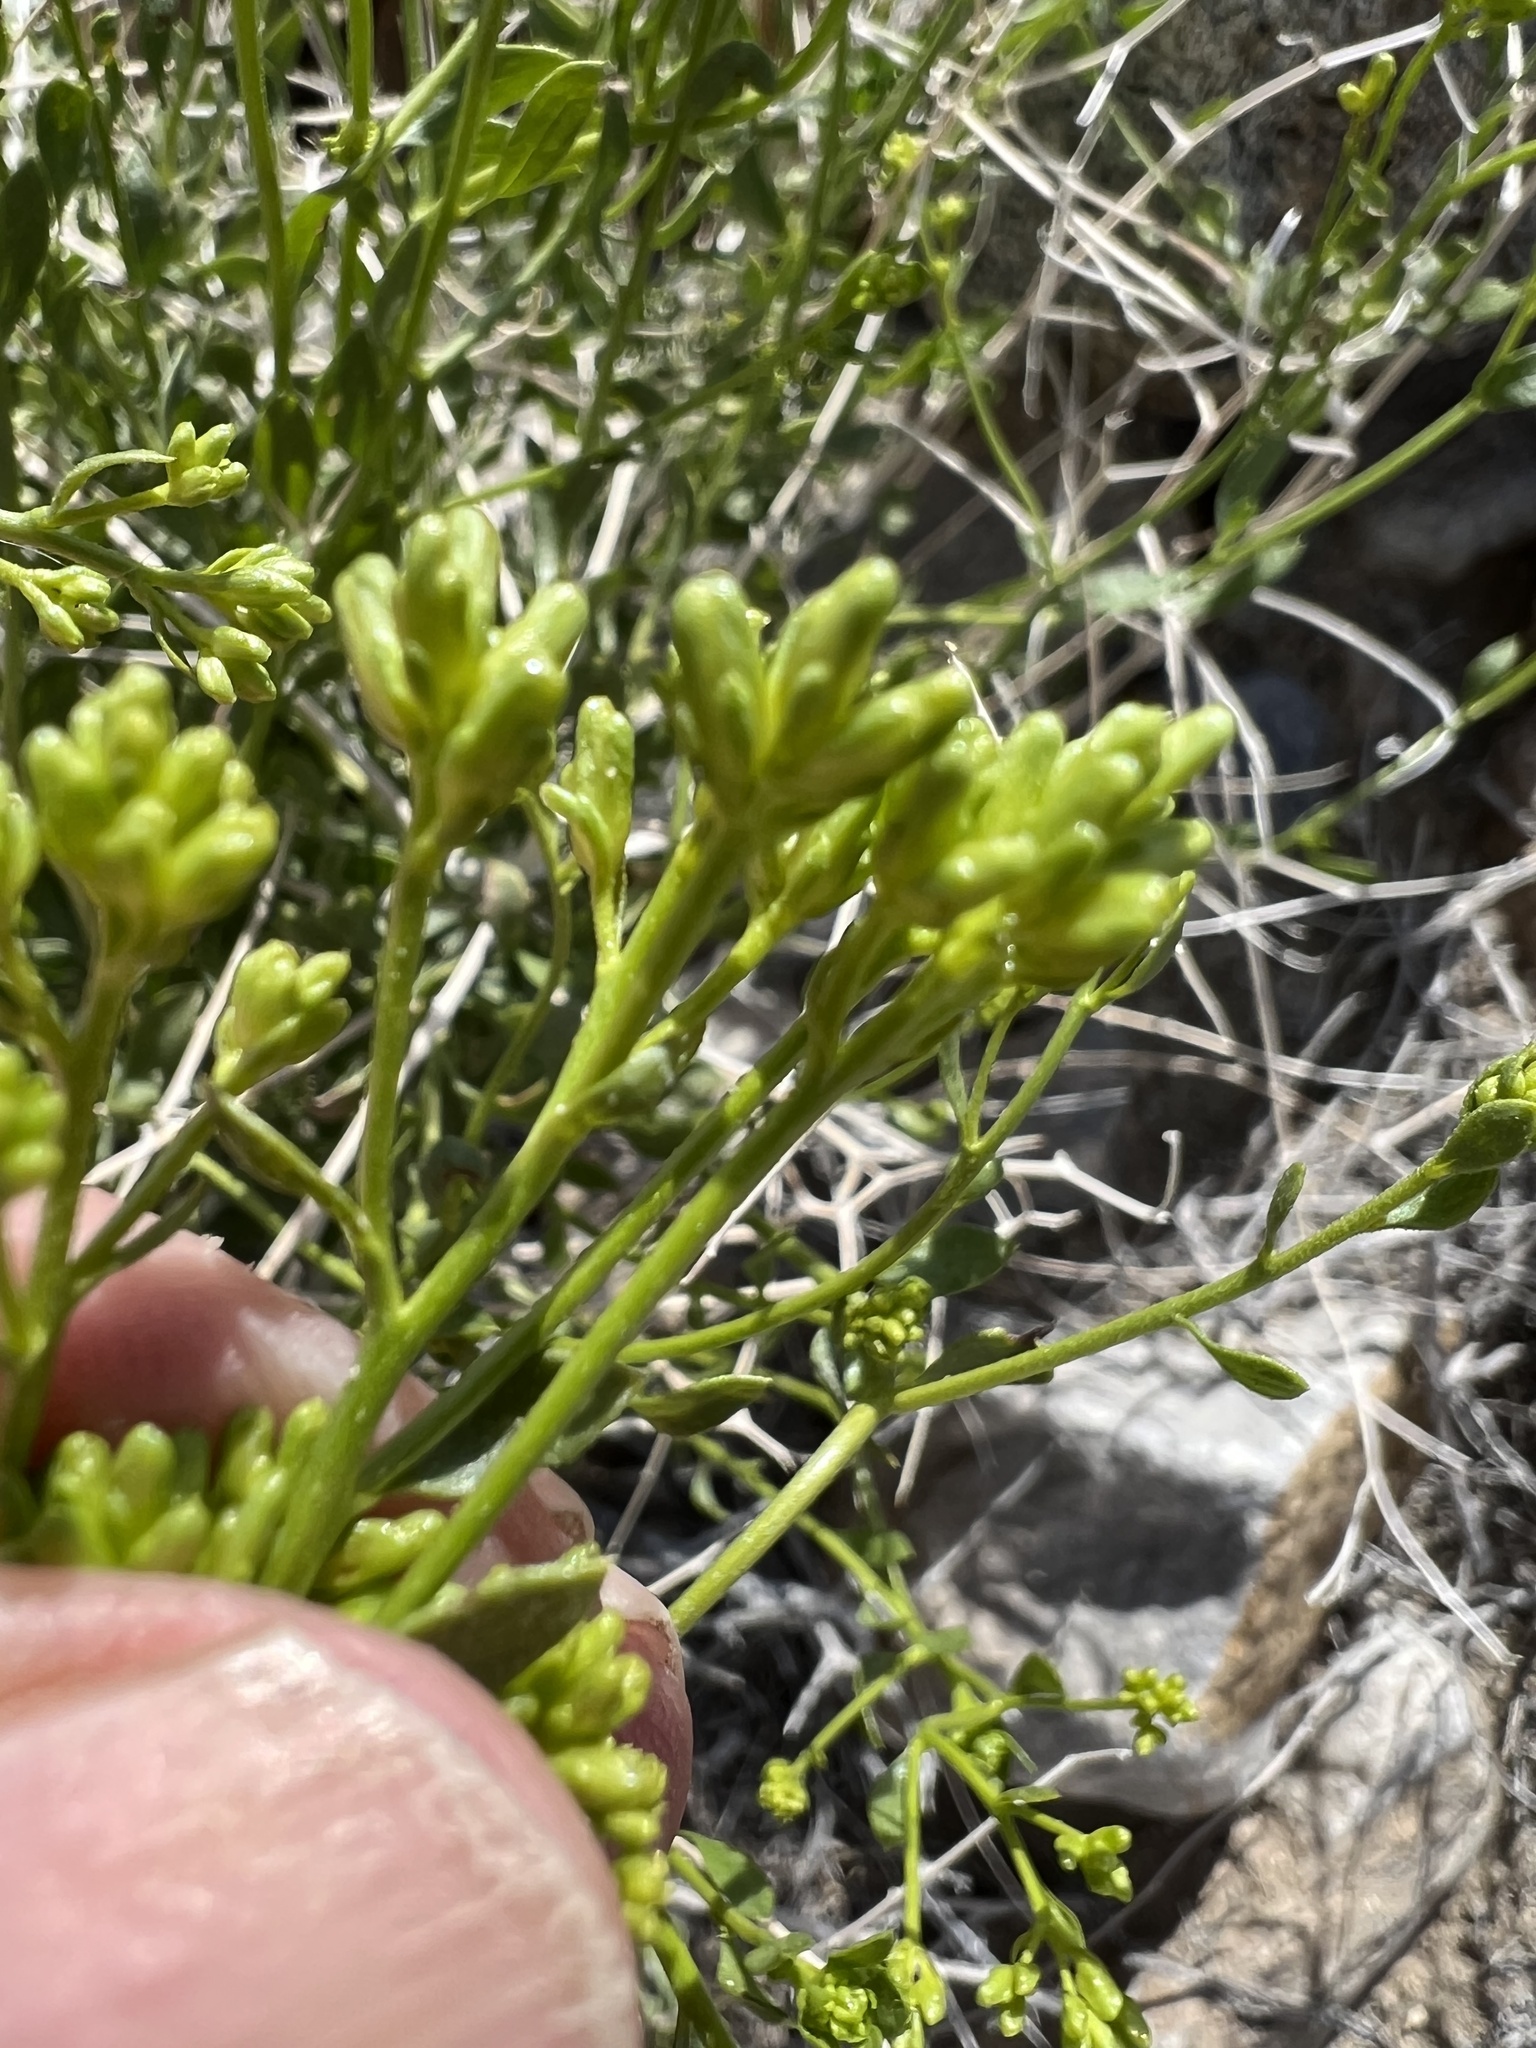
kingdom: Plantae
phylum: Tracheophyta
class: Magnoliopsida
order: Asterales
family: Asteraceae
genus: Amphipappus
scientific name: Amphipappus fremontii
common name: Fremont's chaffbush
